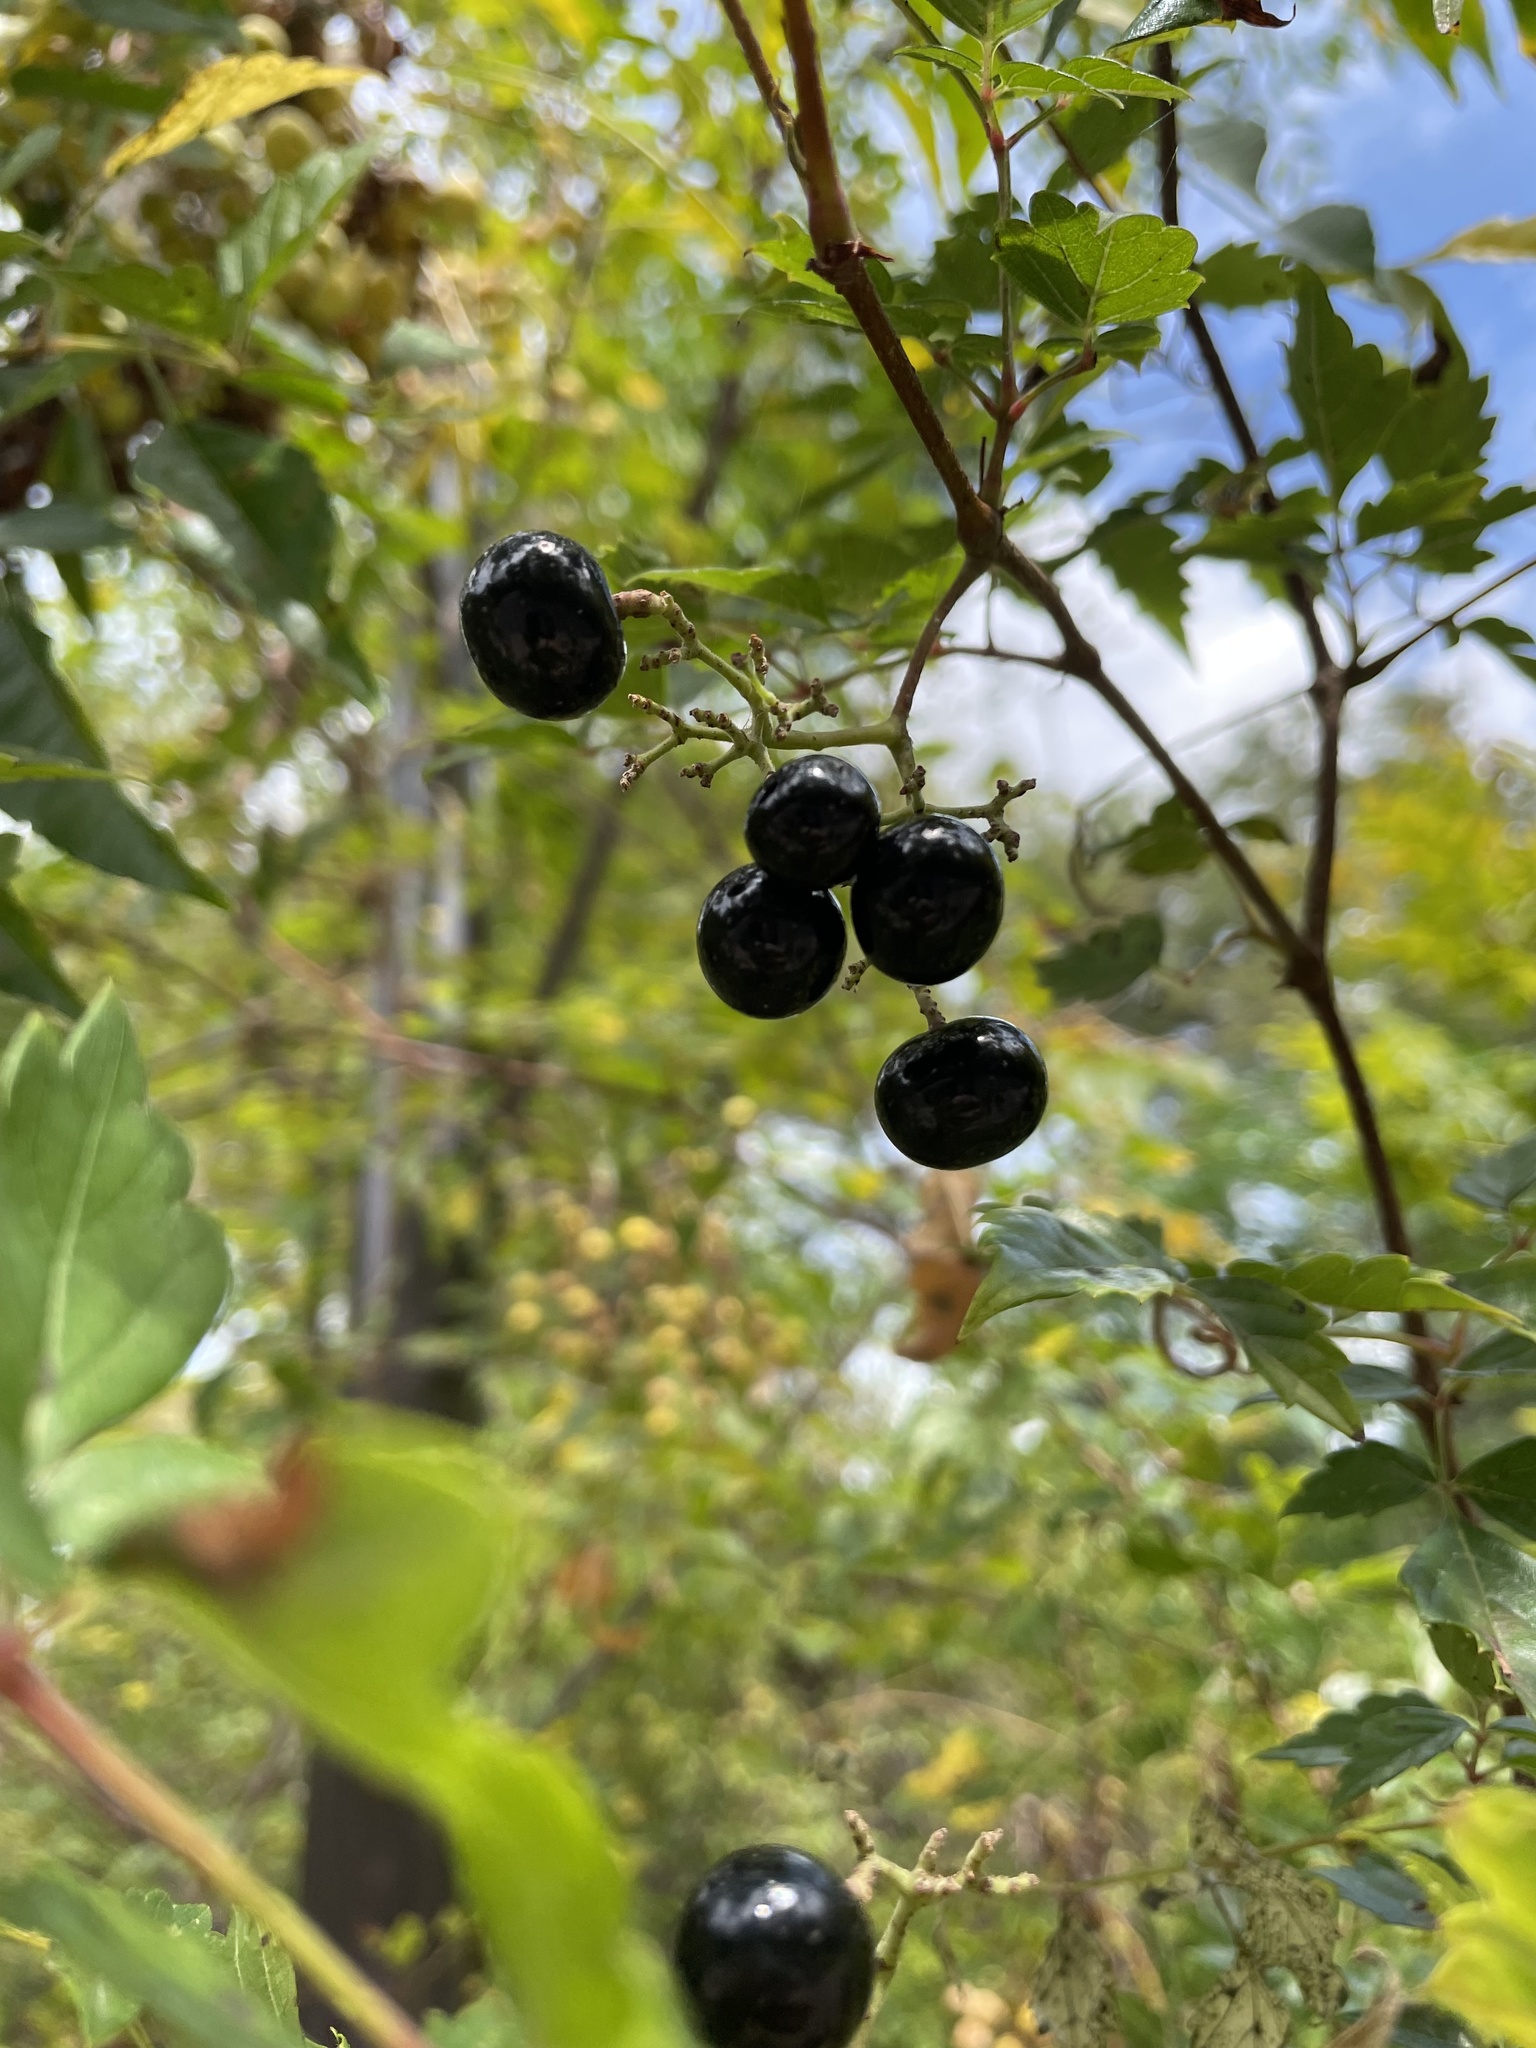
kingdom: Plantae
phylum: Tracheophyta
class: Magnoliopsida
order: Vitales
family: Vitaceae
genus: Nekemias
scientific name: Nekemias arborea
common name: Peppervine
